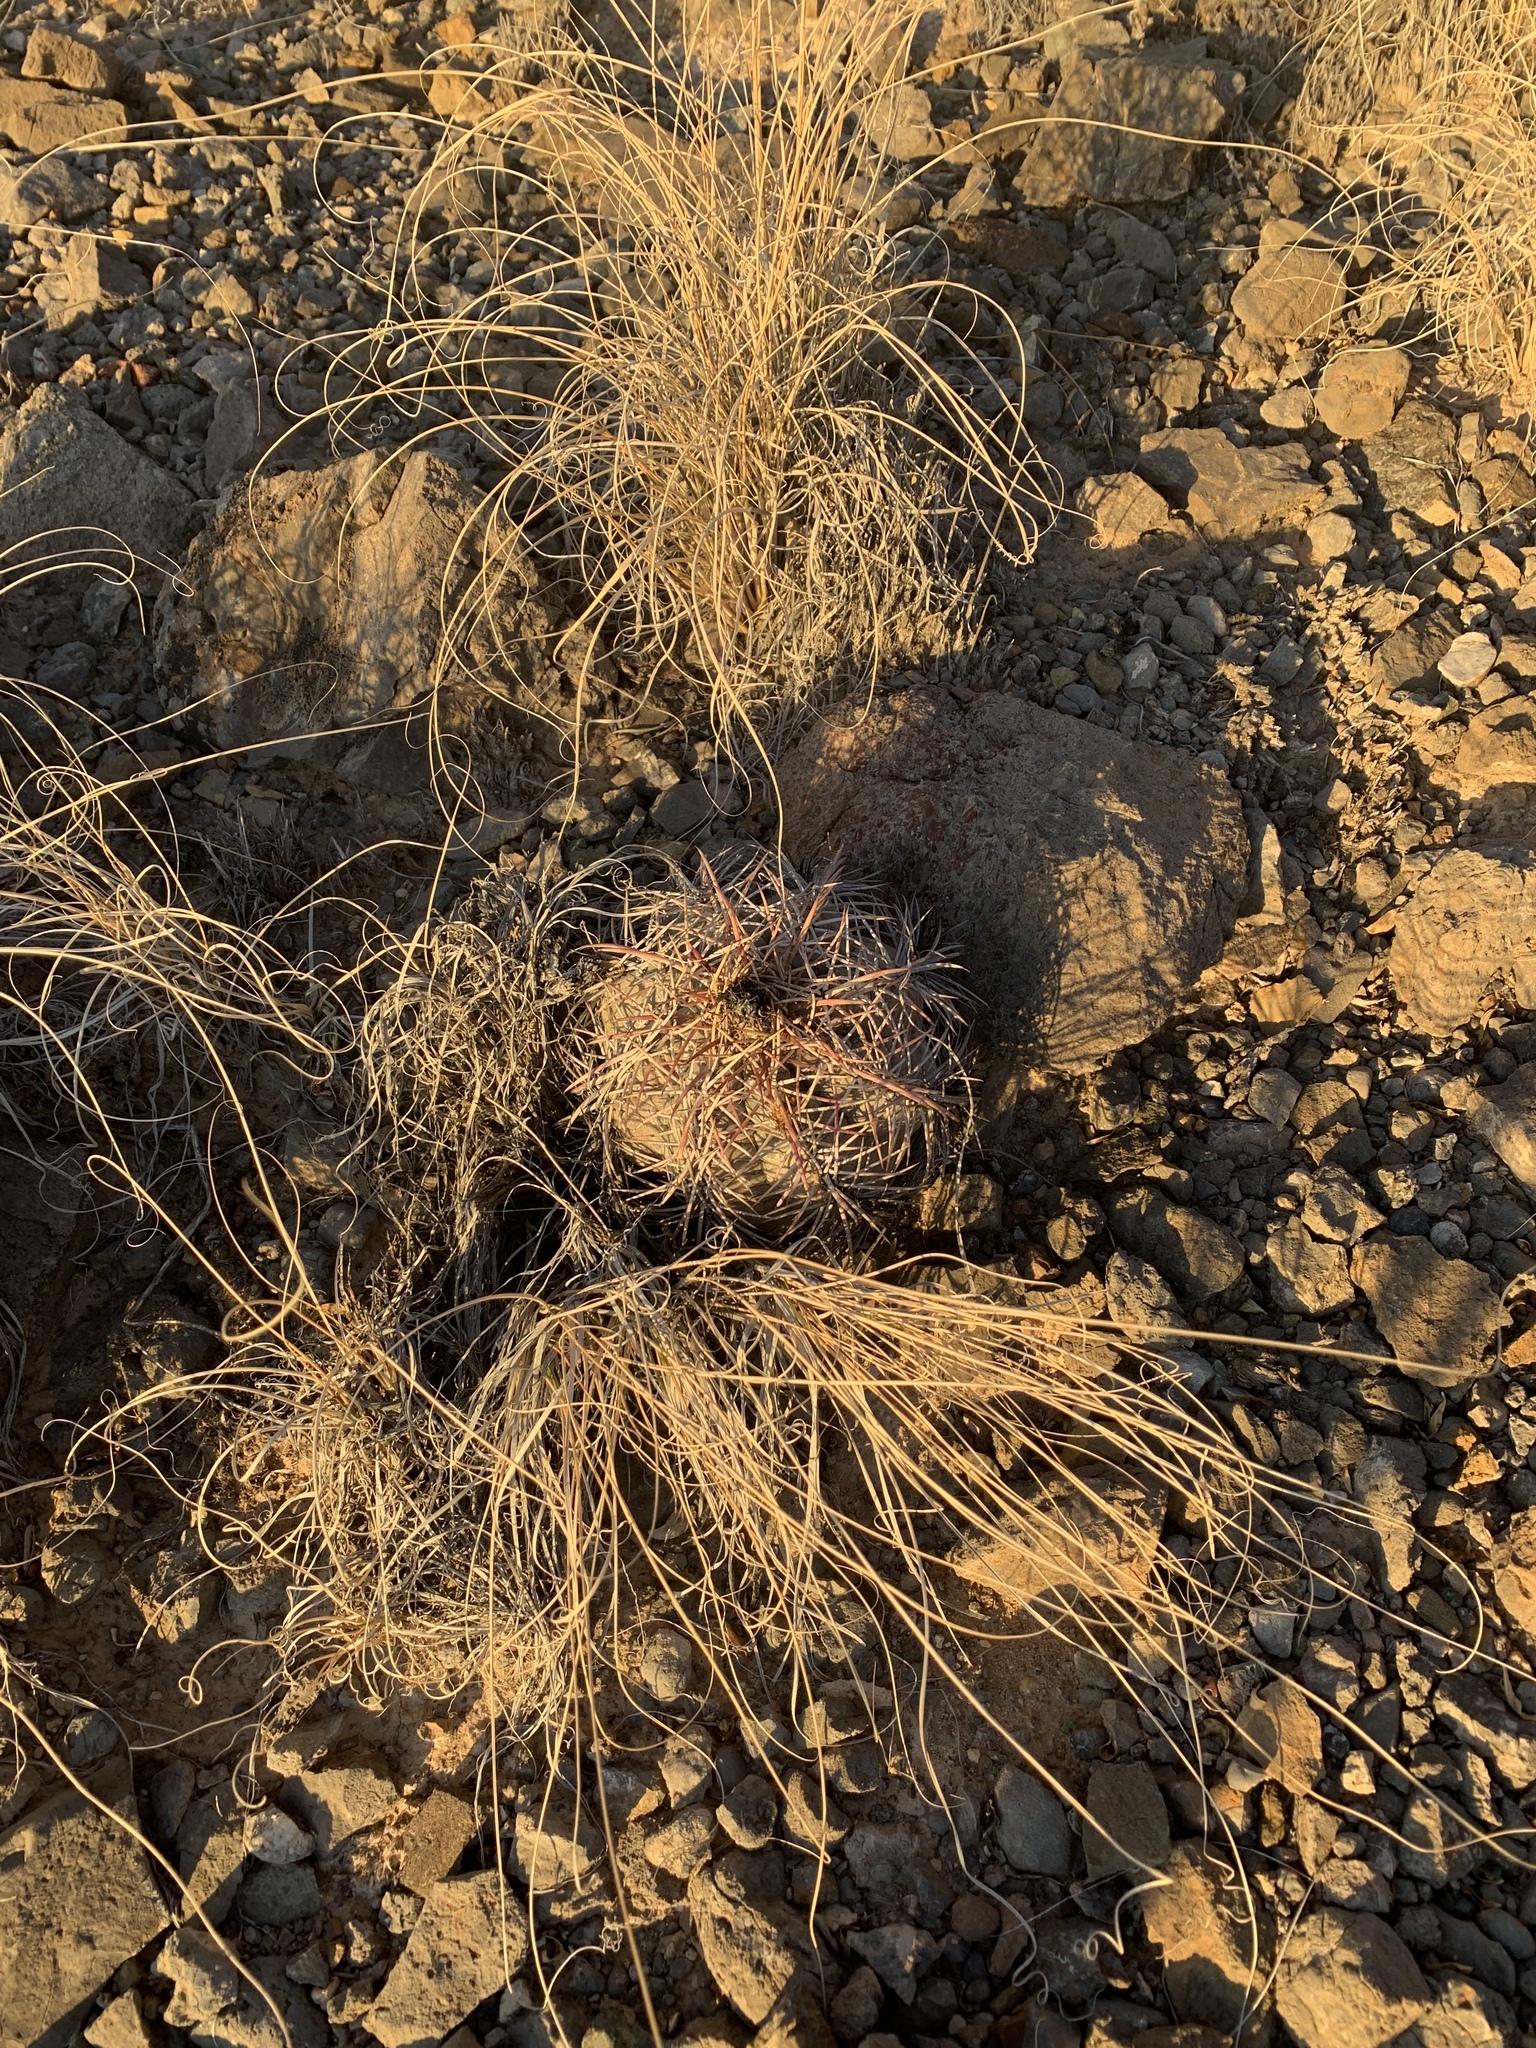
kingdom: Plantae
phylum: Tracheophyta
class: Magnoliopsida
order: Caryophyllales
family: Cactaceae
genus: Echinocactus
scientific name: Echinocactus horizonthalonius
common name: Devilshead
